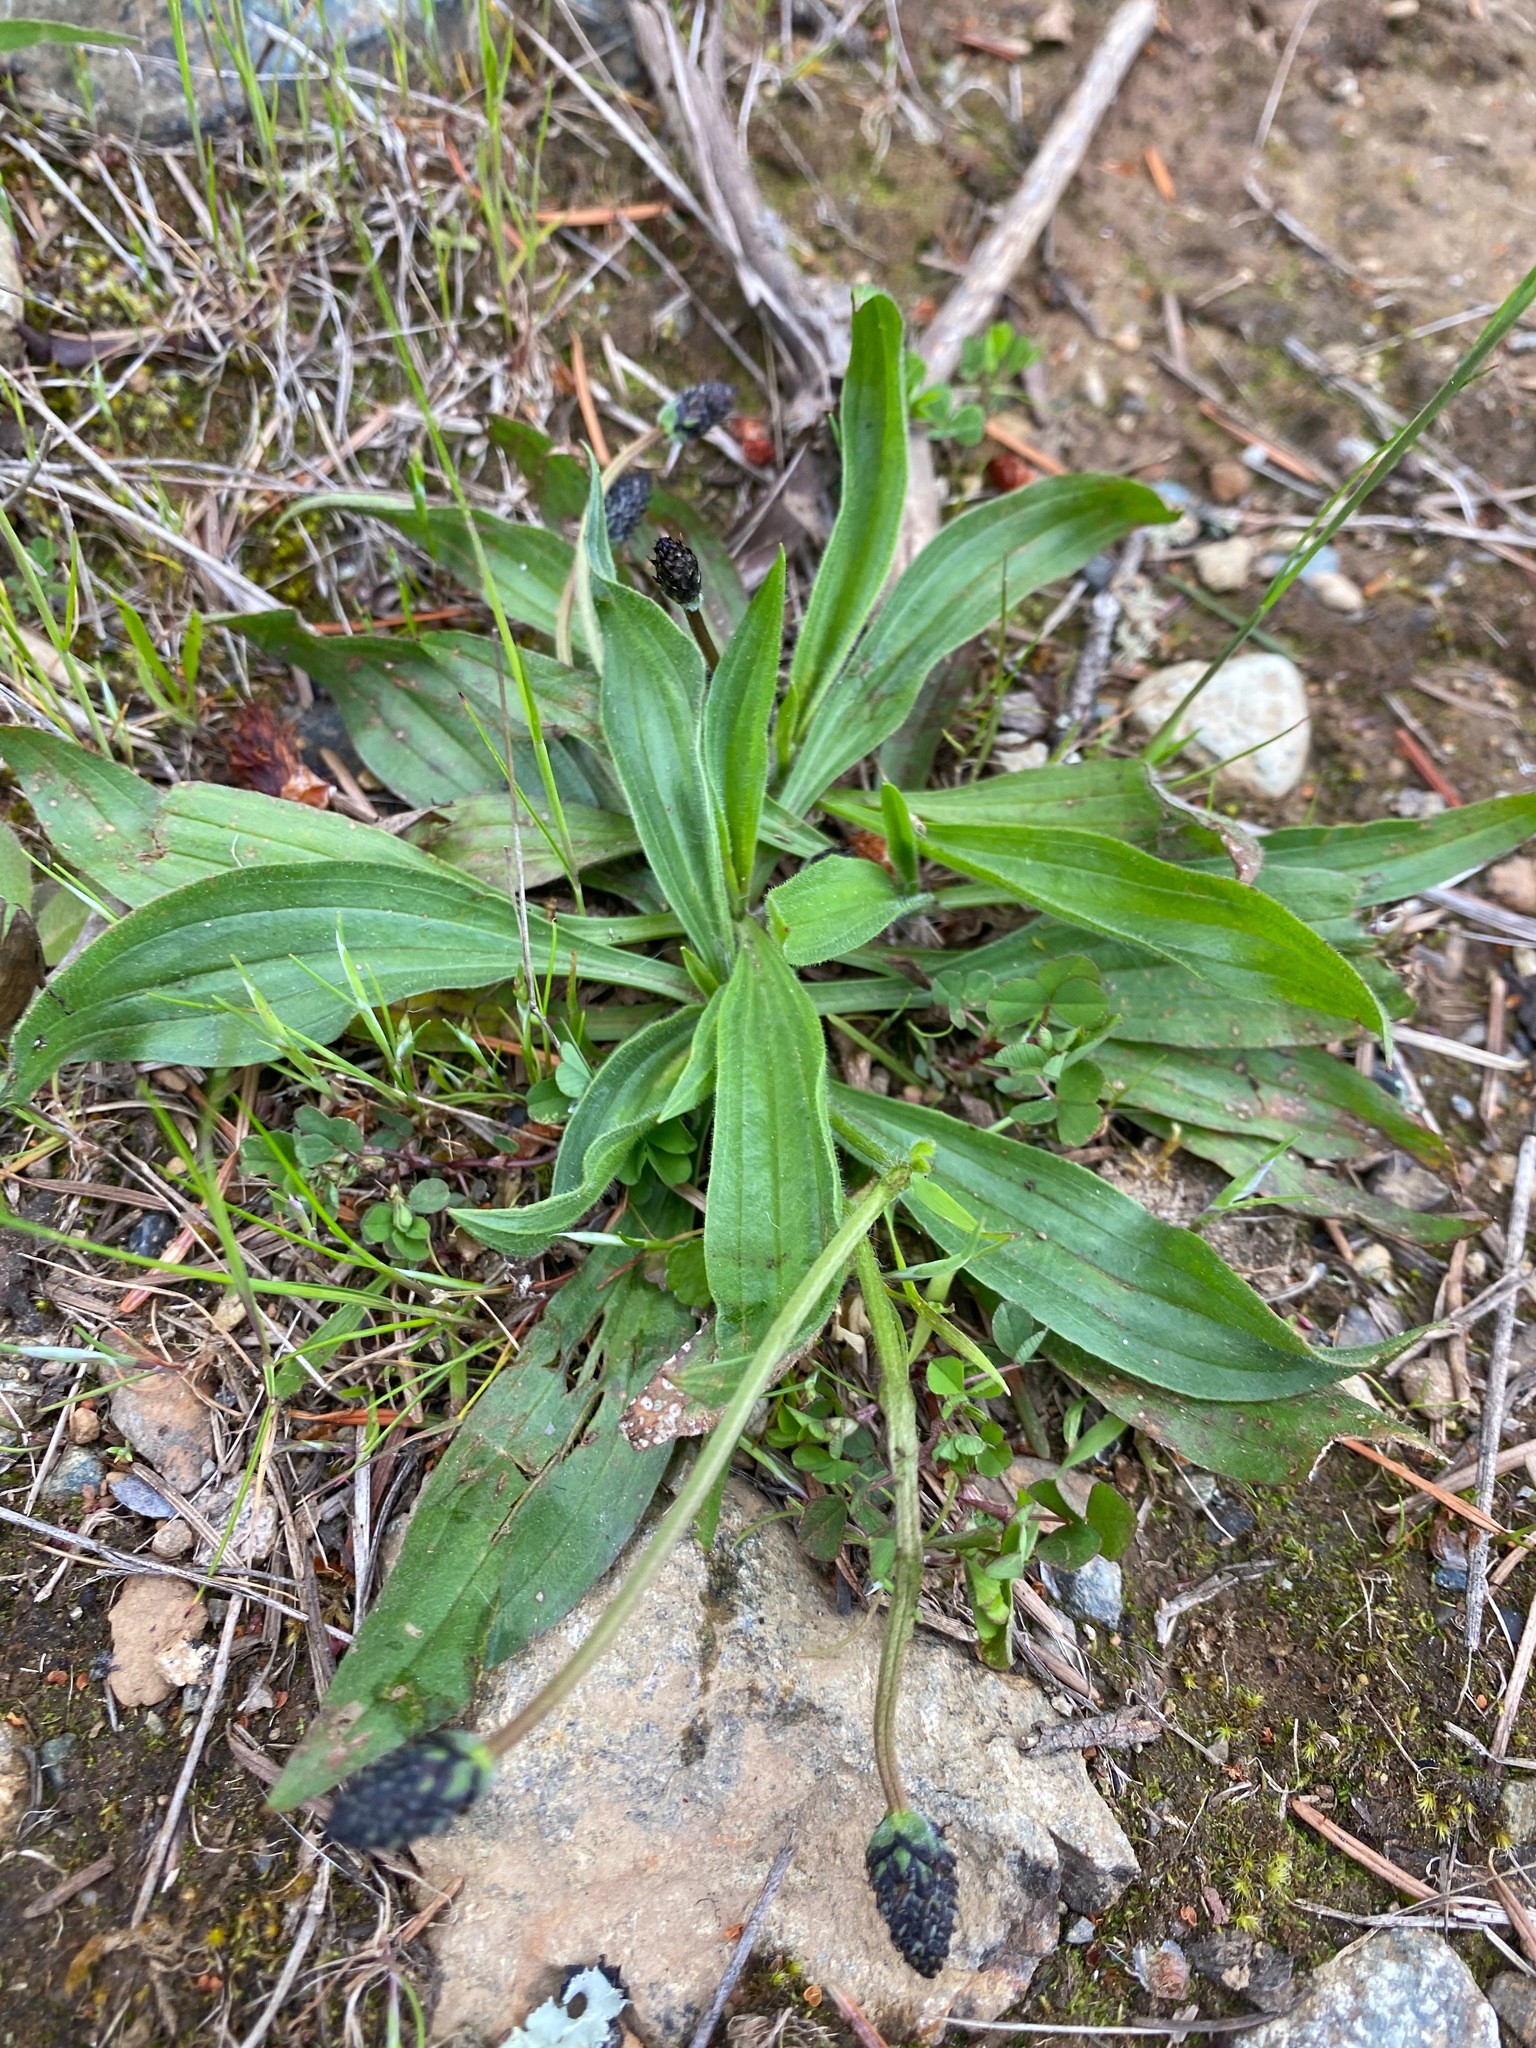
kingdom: Plantae
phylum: Tracheophyta
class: Magnoliopsida
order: Lamiales
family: Plantaginaceae
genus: Plantago
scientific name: Plantago lanceolata
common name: Ribwort plantain
